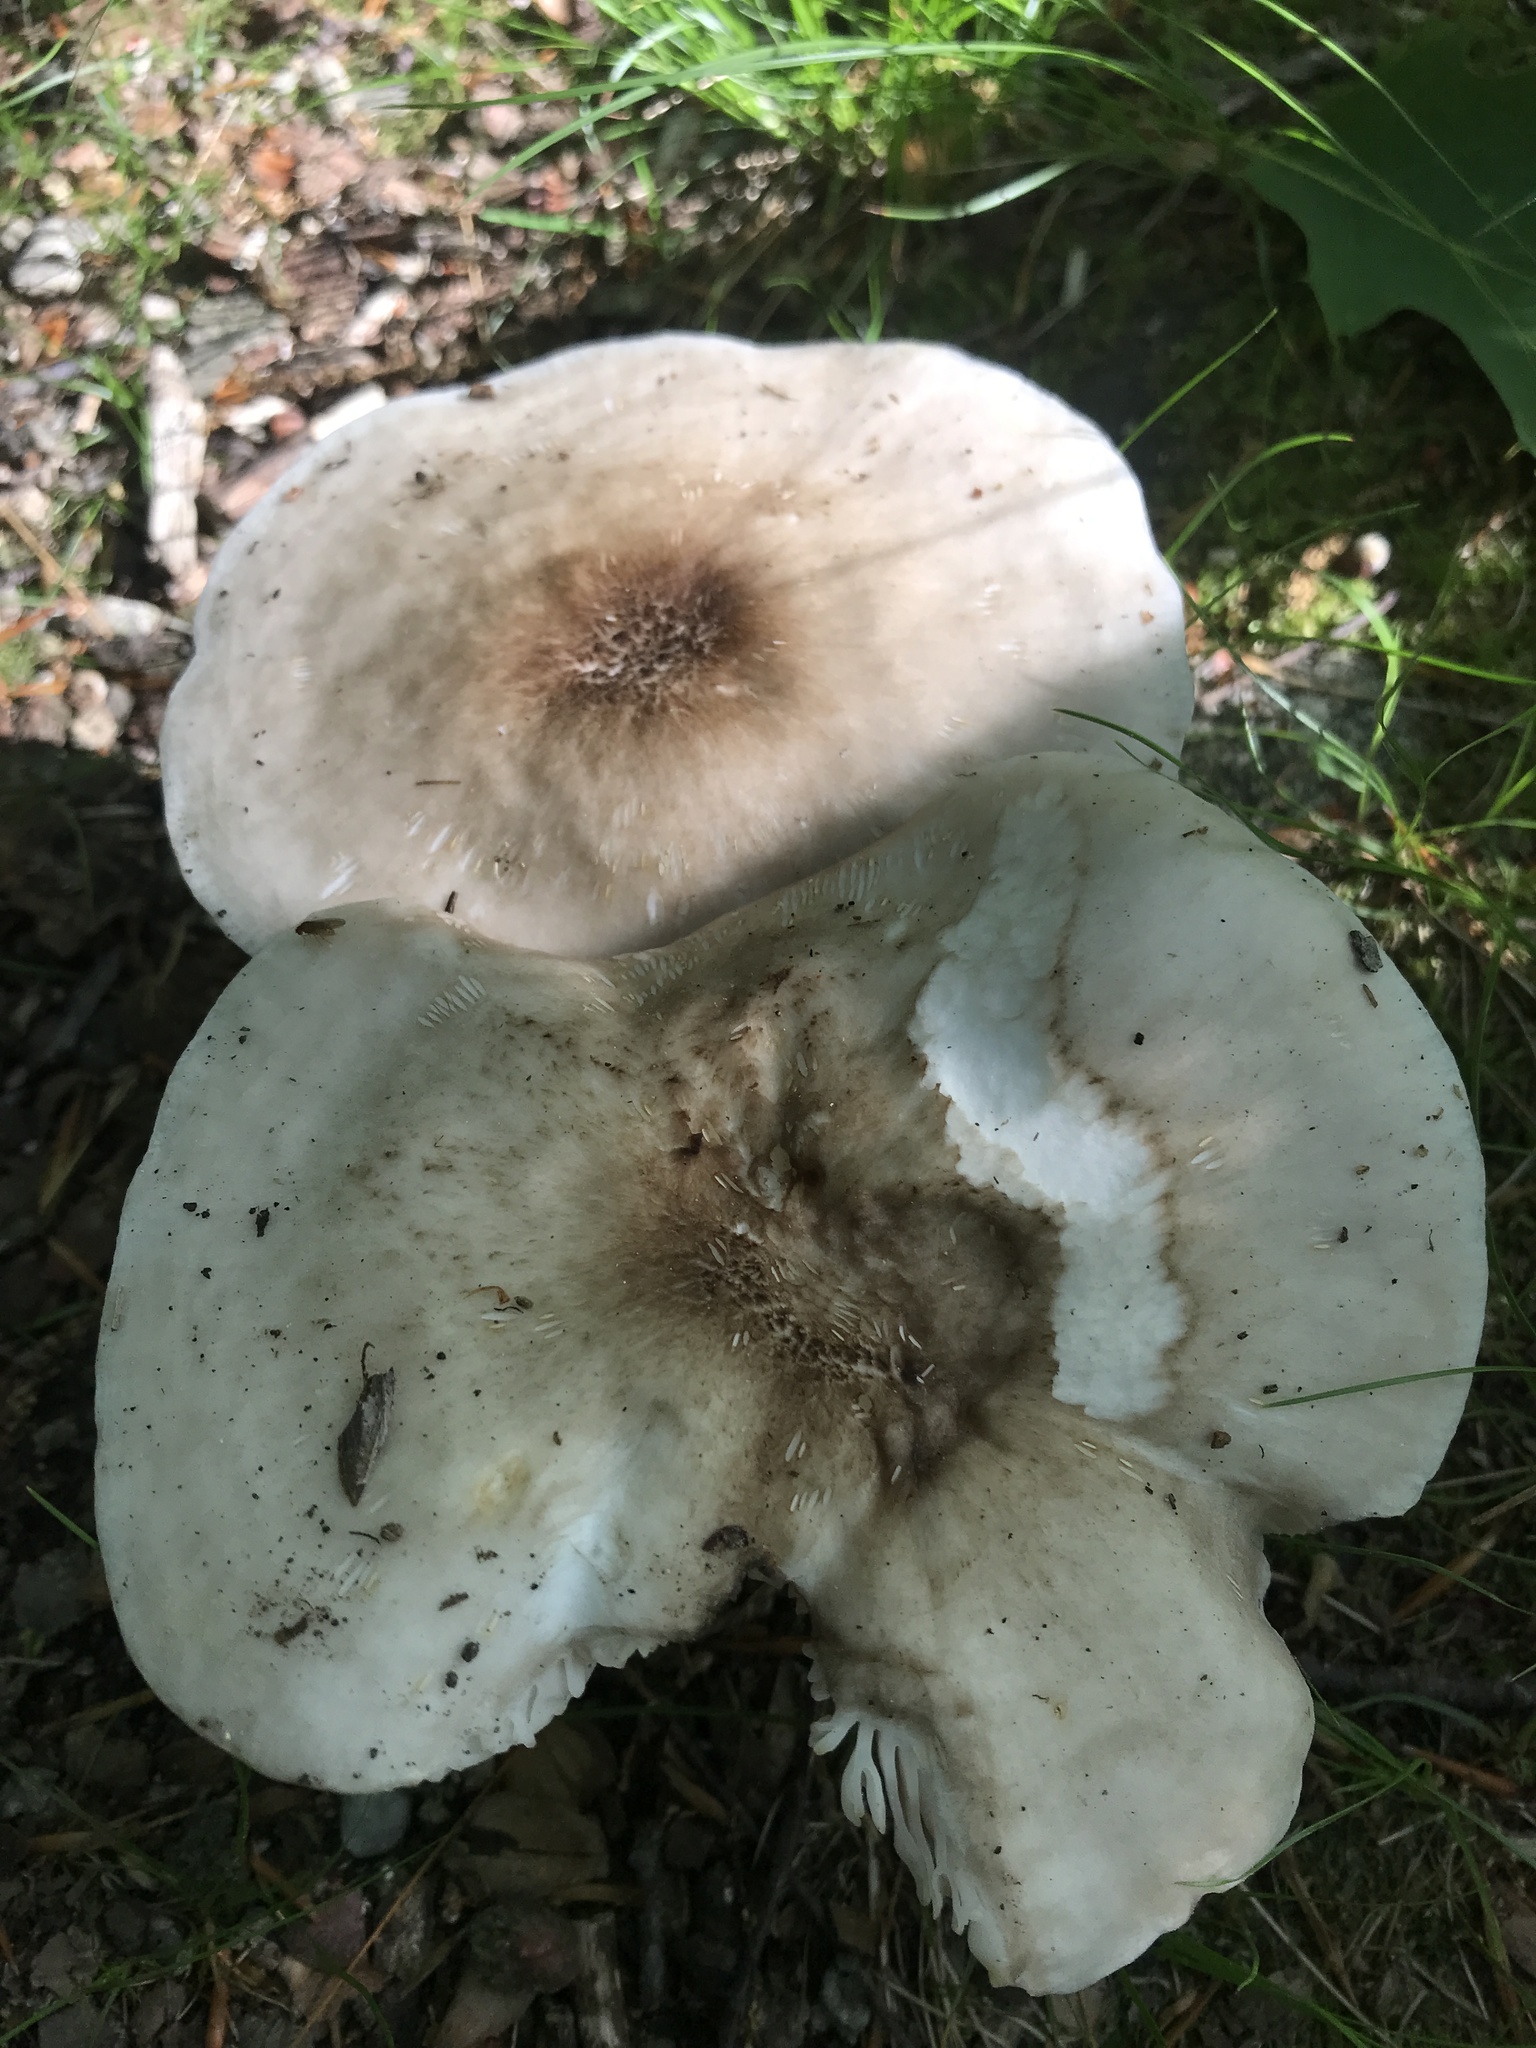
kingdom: Fungi
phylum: Basidiomycota
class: Agaricomycetes
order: Agaricales
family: Pluteaceae
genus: Pluteus
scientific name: Pluteus petasatus
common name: Scaly shield
